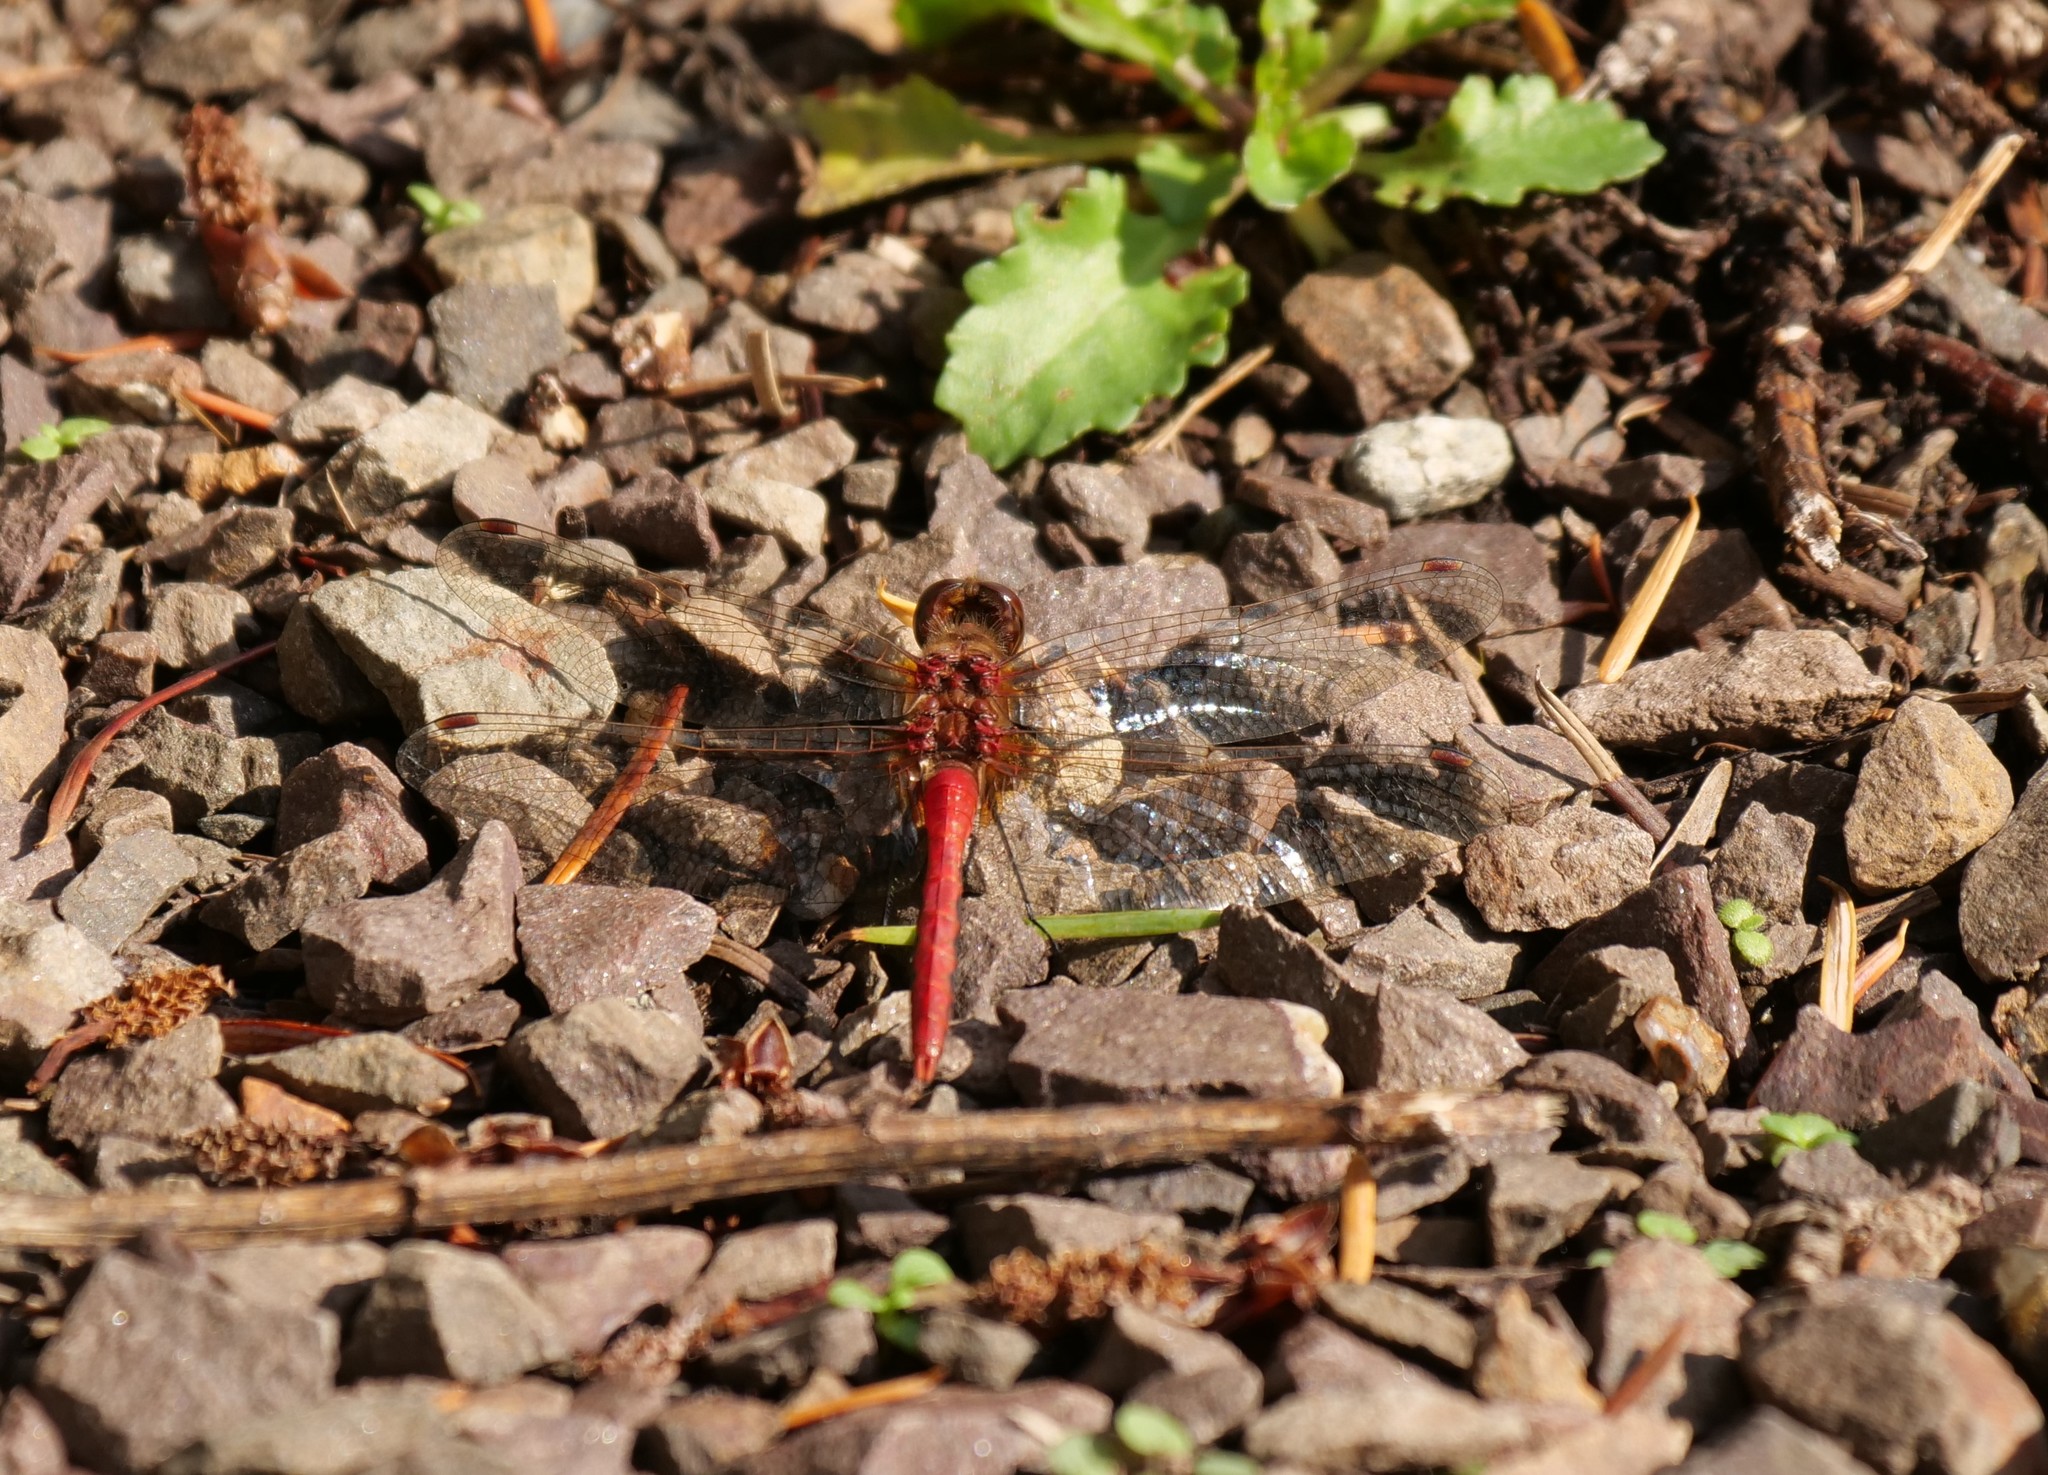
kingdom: Animalia
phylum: Arthropoda
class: Insecta
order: Odonata
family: Libellulidae
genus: Sympetrum
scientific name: Sympetrum pallipes
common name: Striped meadowhawk
